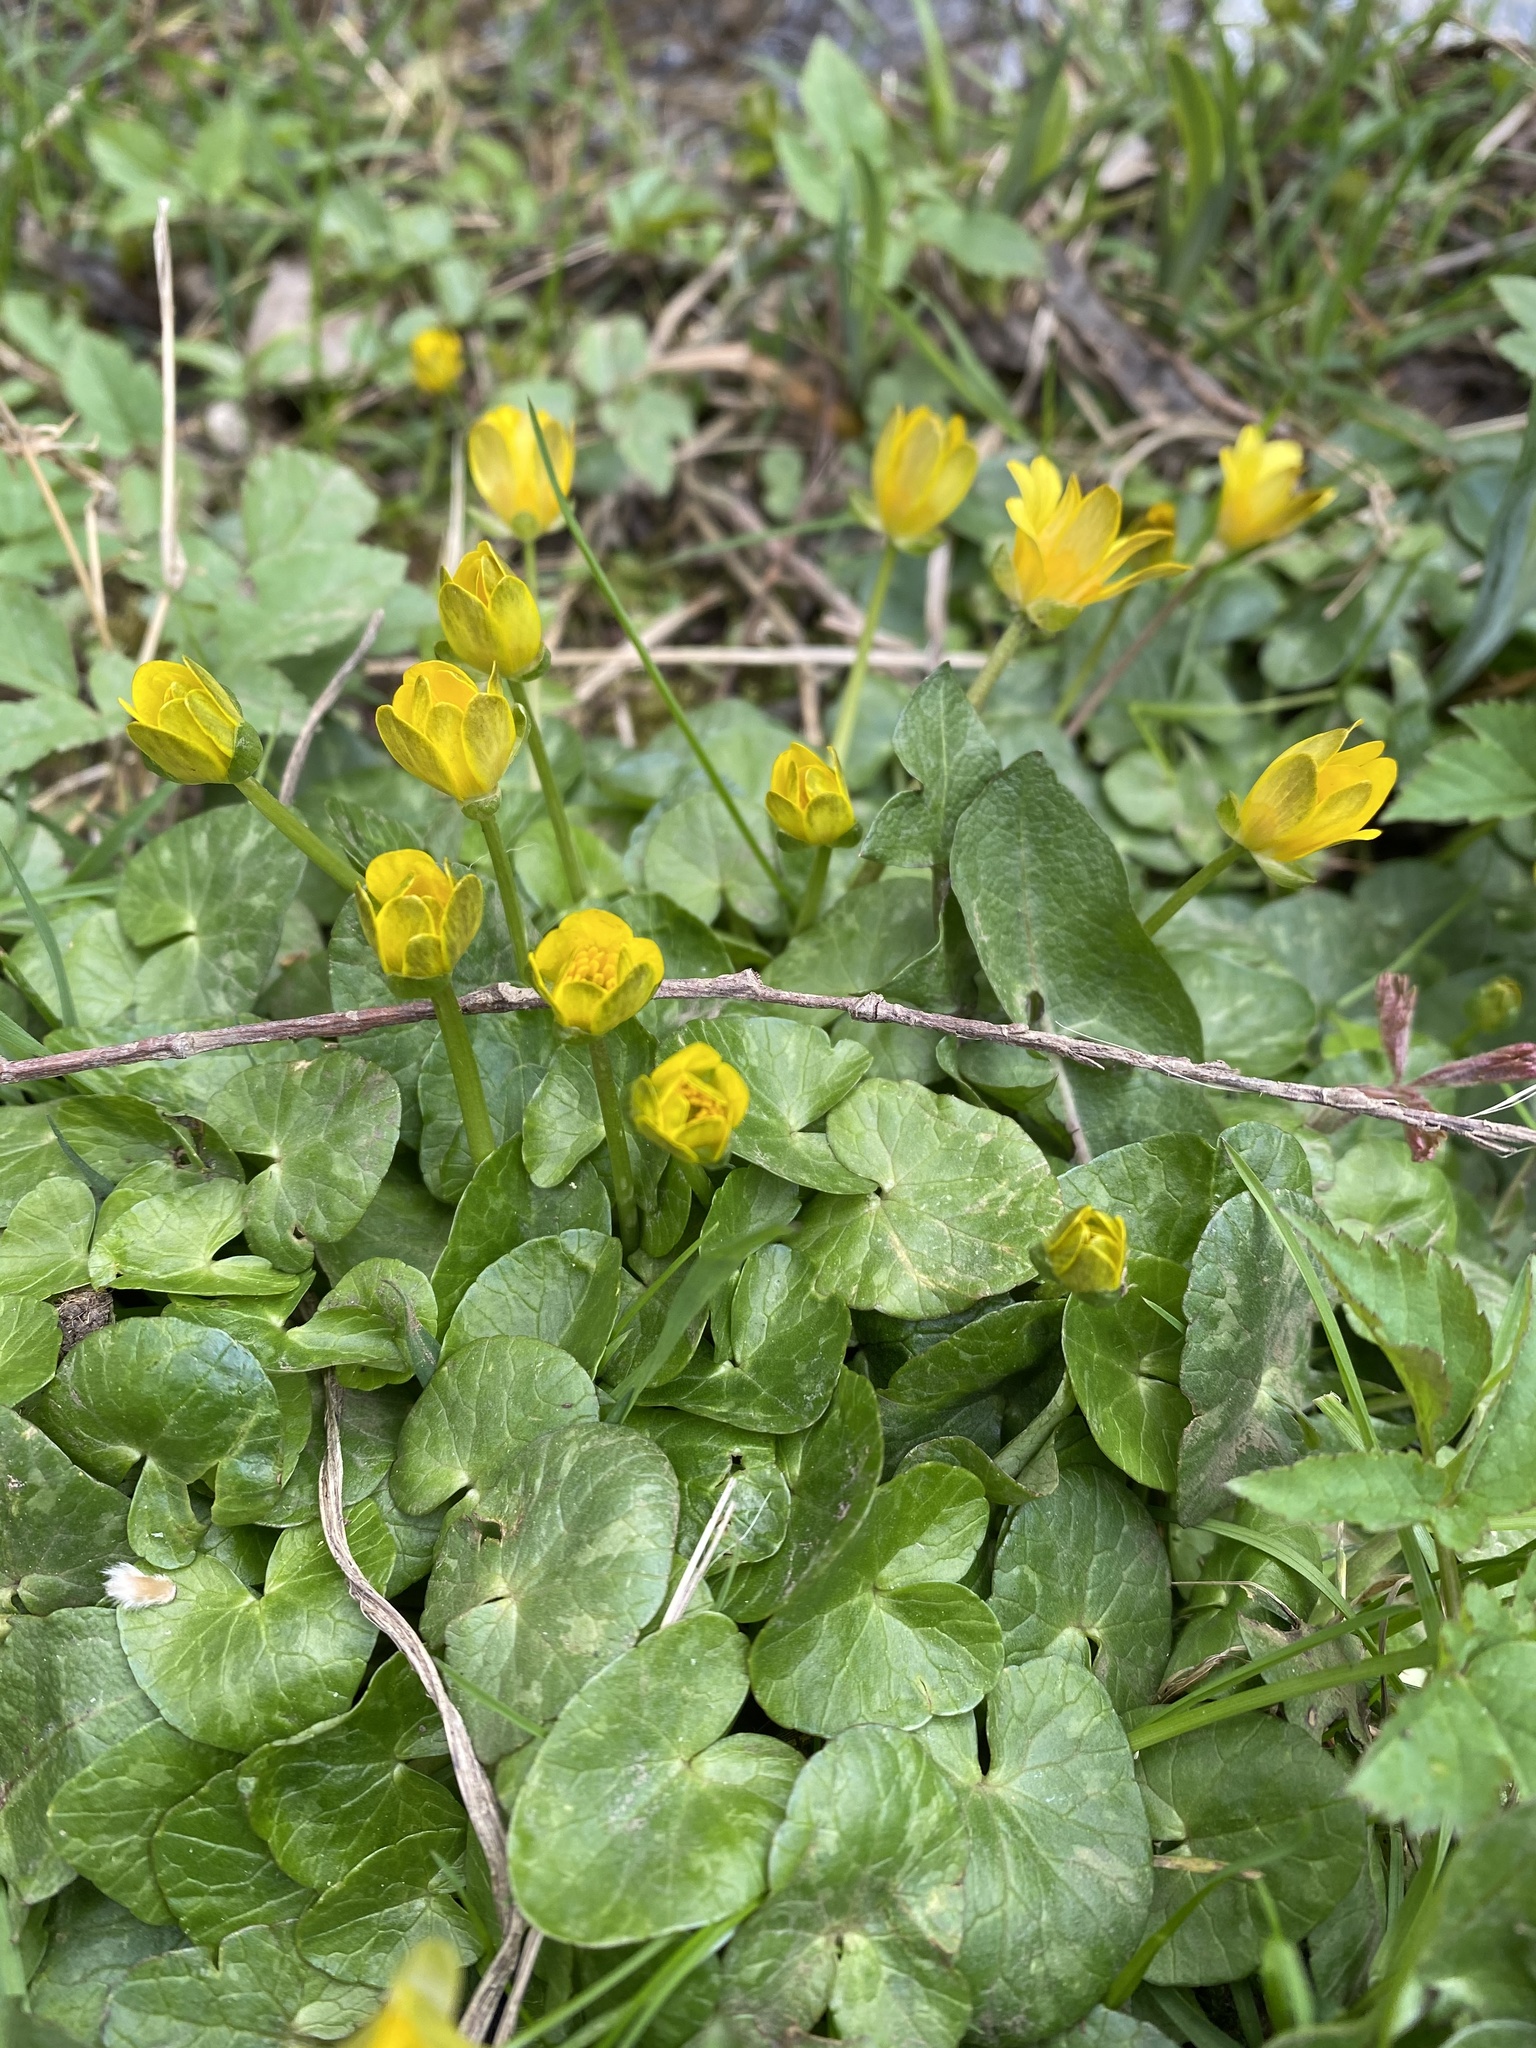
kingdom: Plantae
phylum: Tracheophyta
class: Magnoliopsida
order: Ranunculales
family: Ranunculaceae
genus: Ficaria
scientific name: Ficaria verna
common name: Lesser celandine
